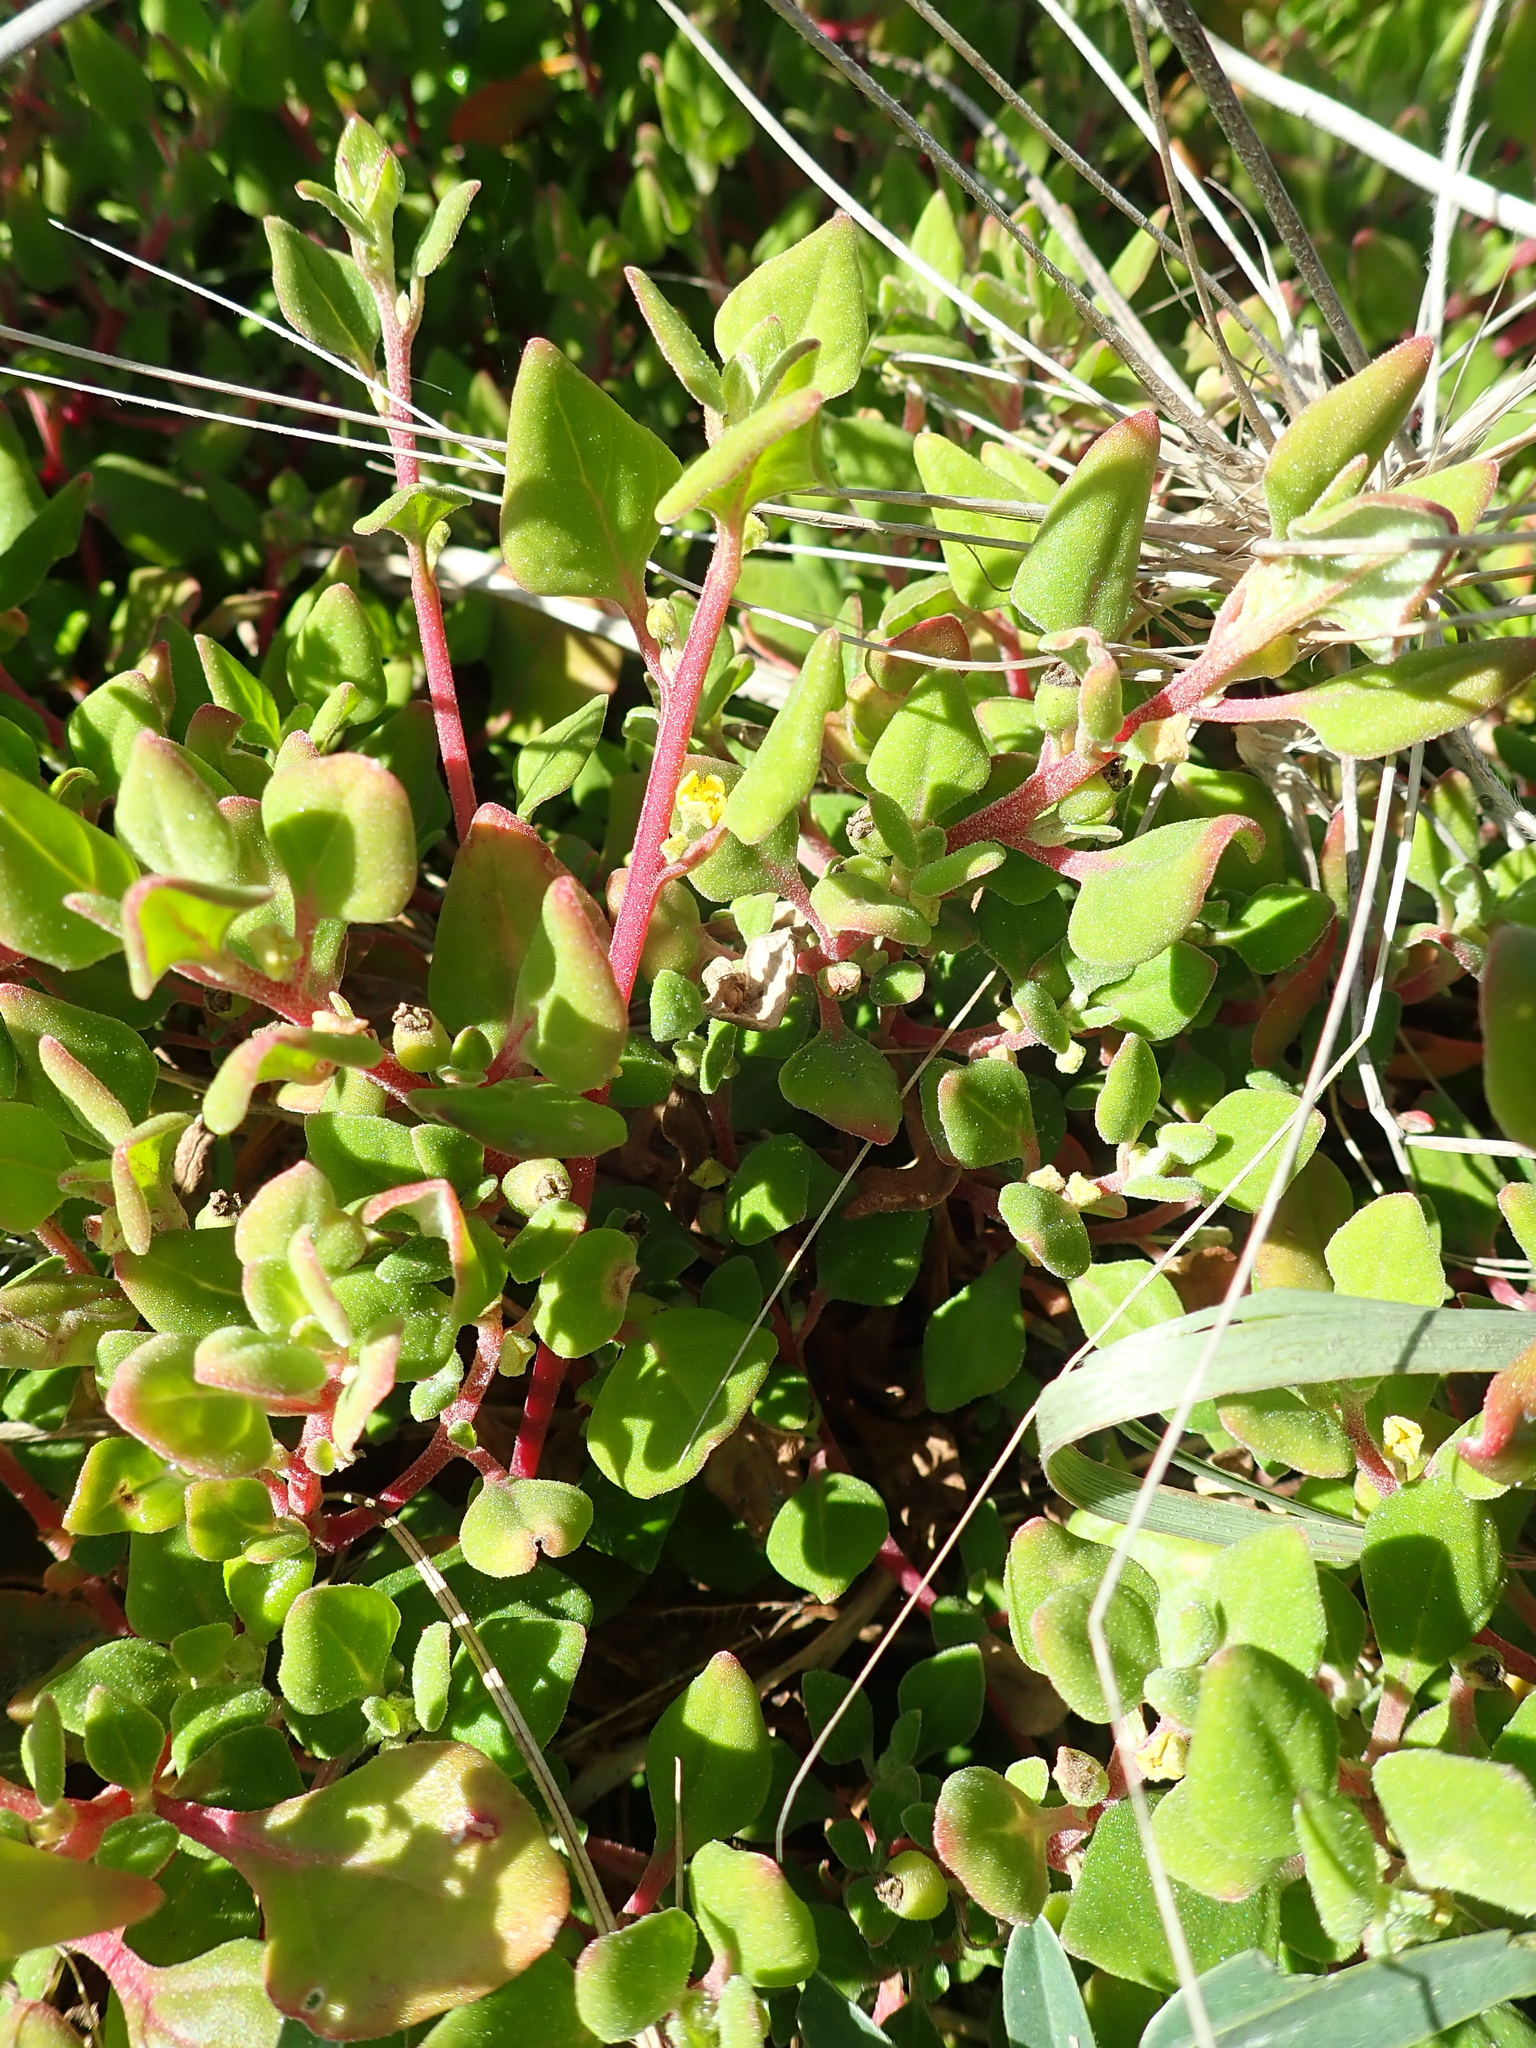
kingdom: Plantae
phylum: Tracheophyta
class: Magnoliopsida
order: Caryophyllales
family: Aizoaceae
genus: Tetragonia
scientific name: Tetragonia implexicoma
